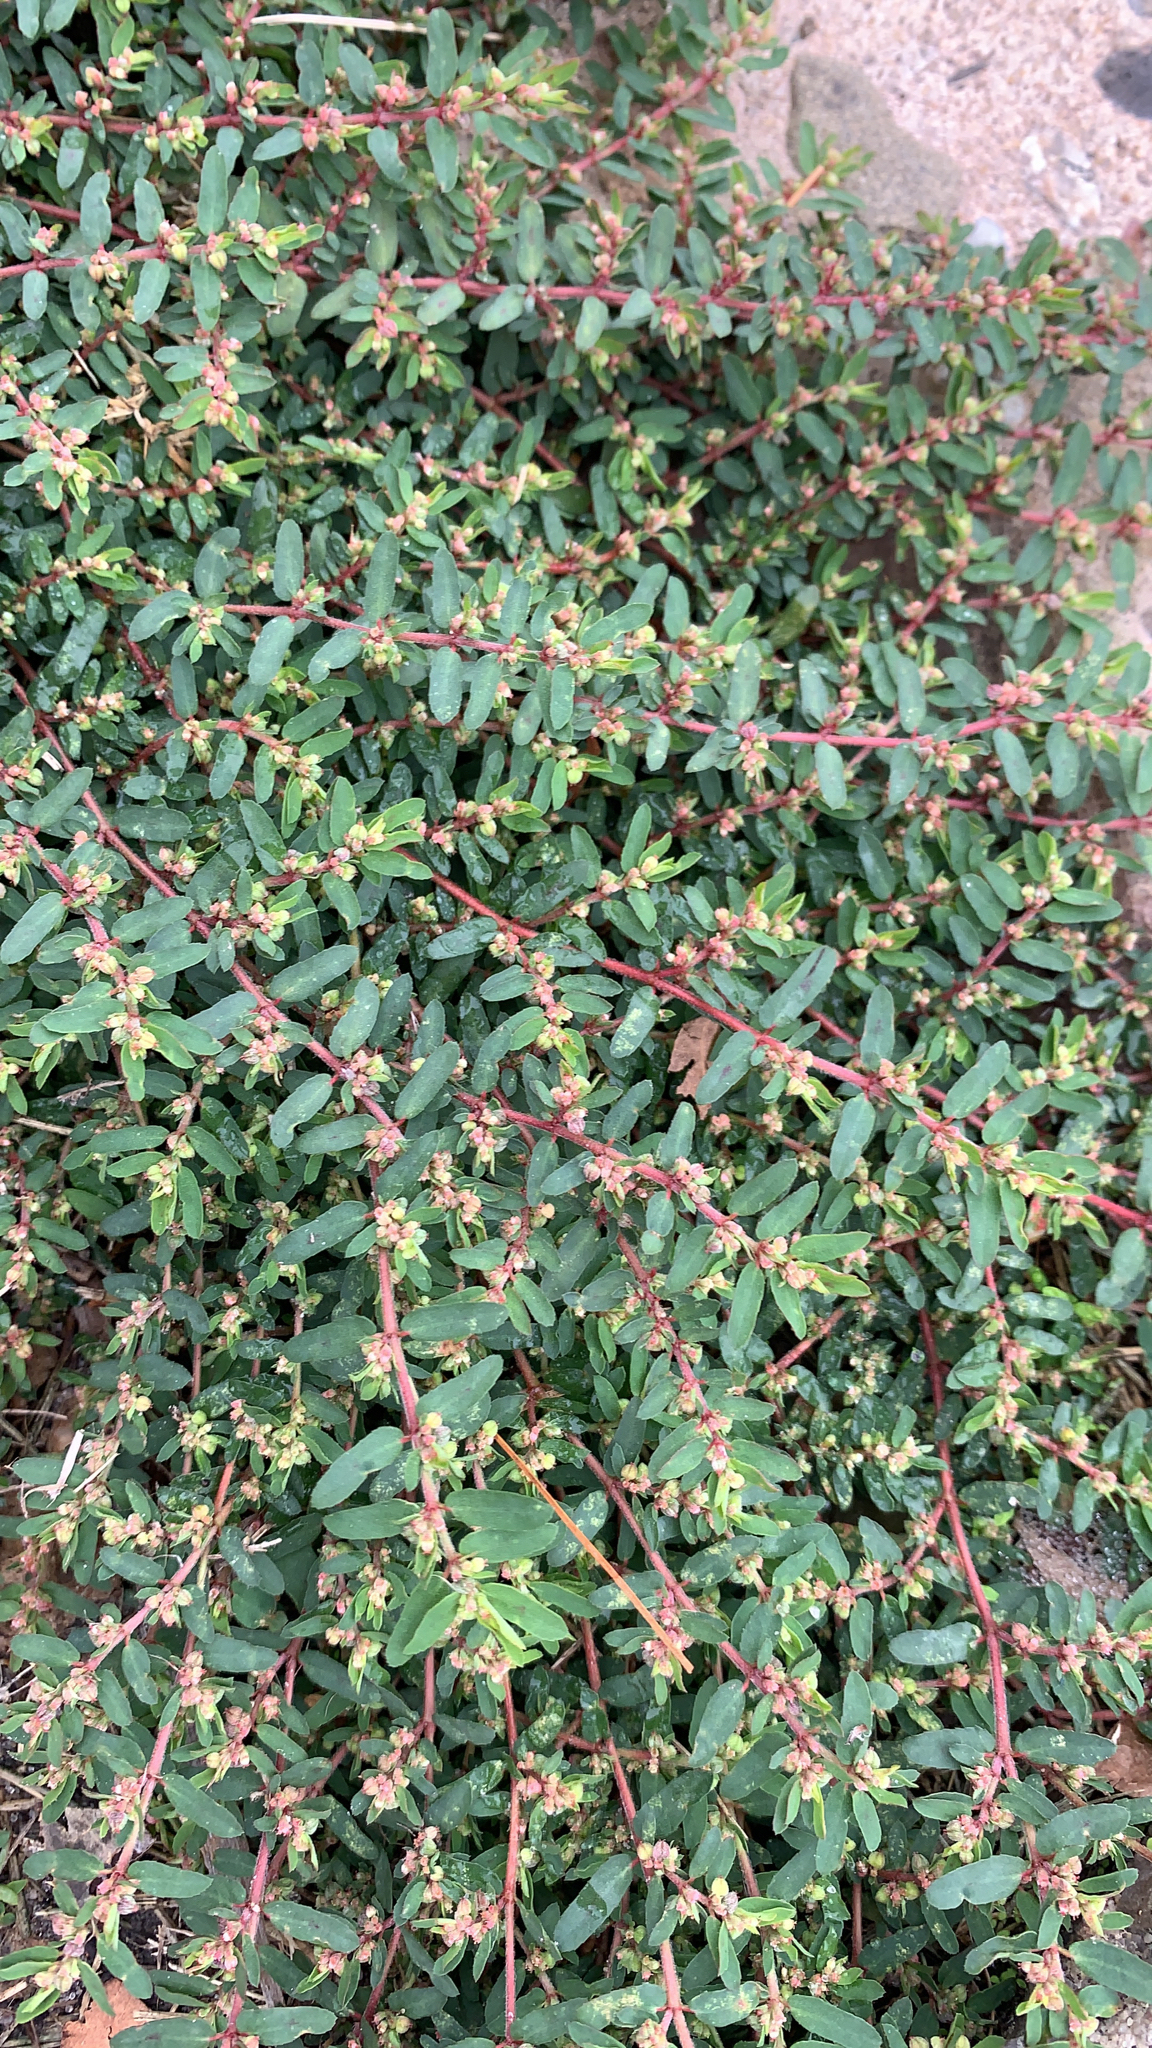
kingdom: Plantae
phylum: Tracheophyta
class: Magnoliopsida
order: Malpighiales
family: Euphorbiaceae
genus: Euphorbia
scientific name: Euphorbia maculata
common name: Spotted spurge
